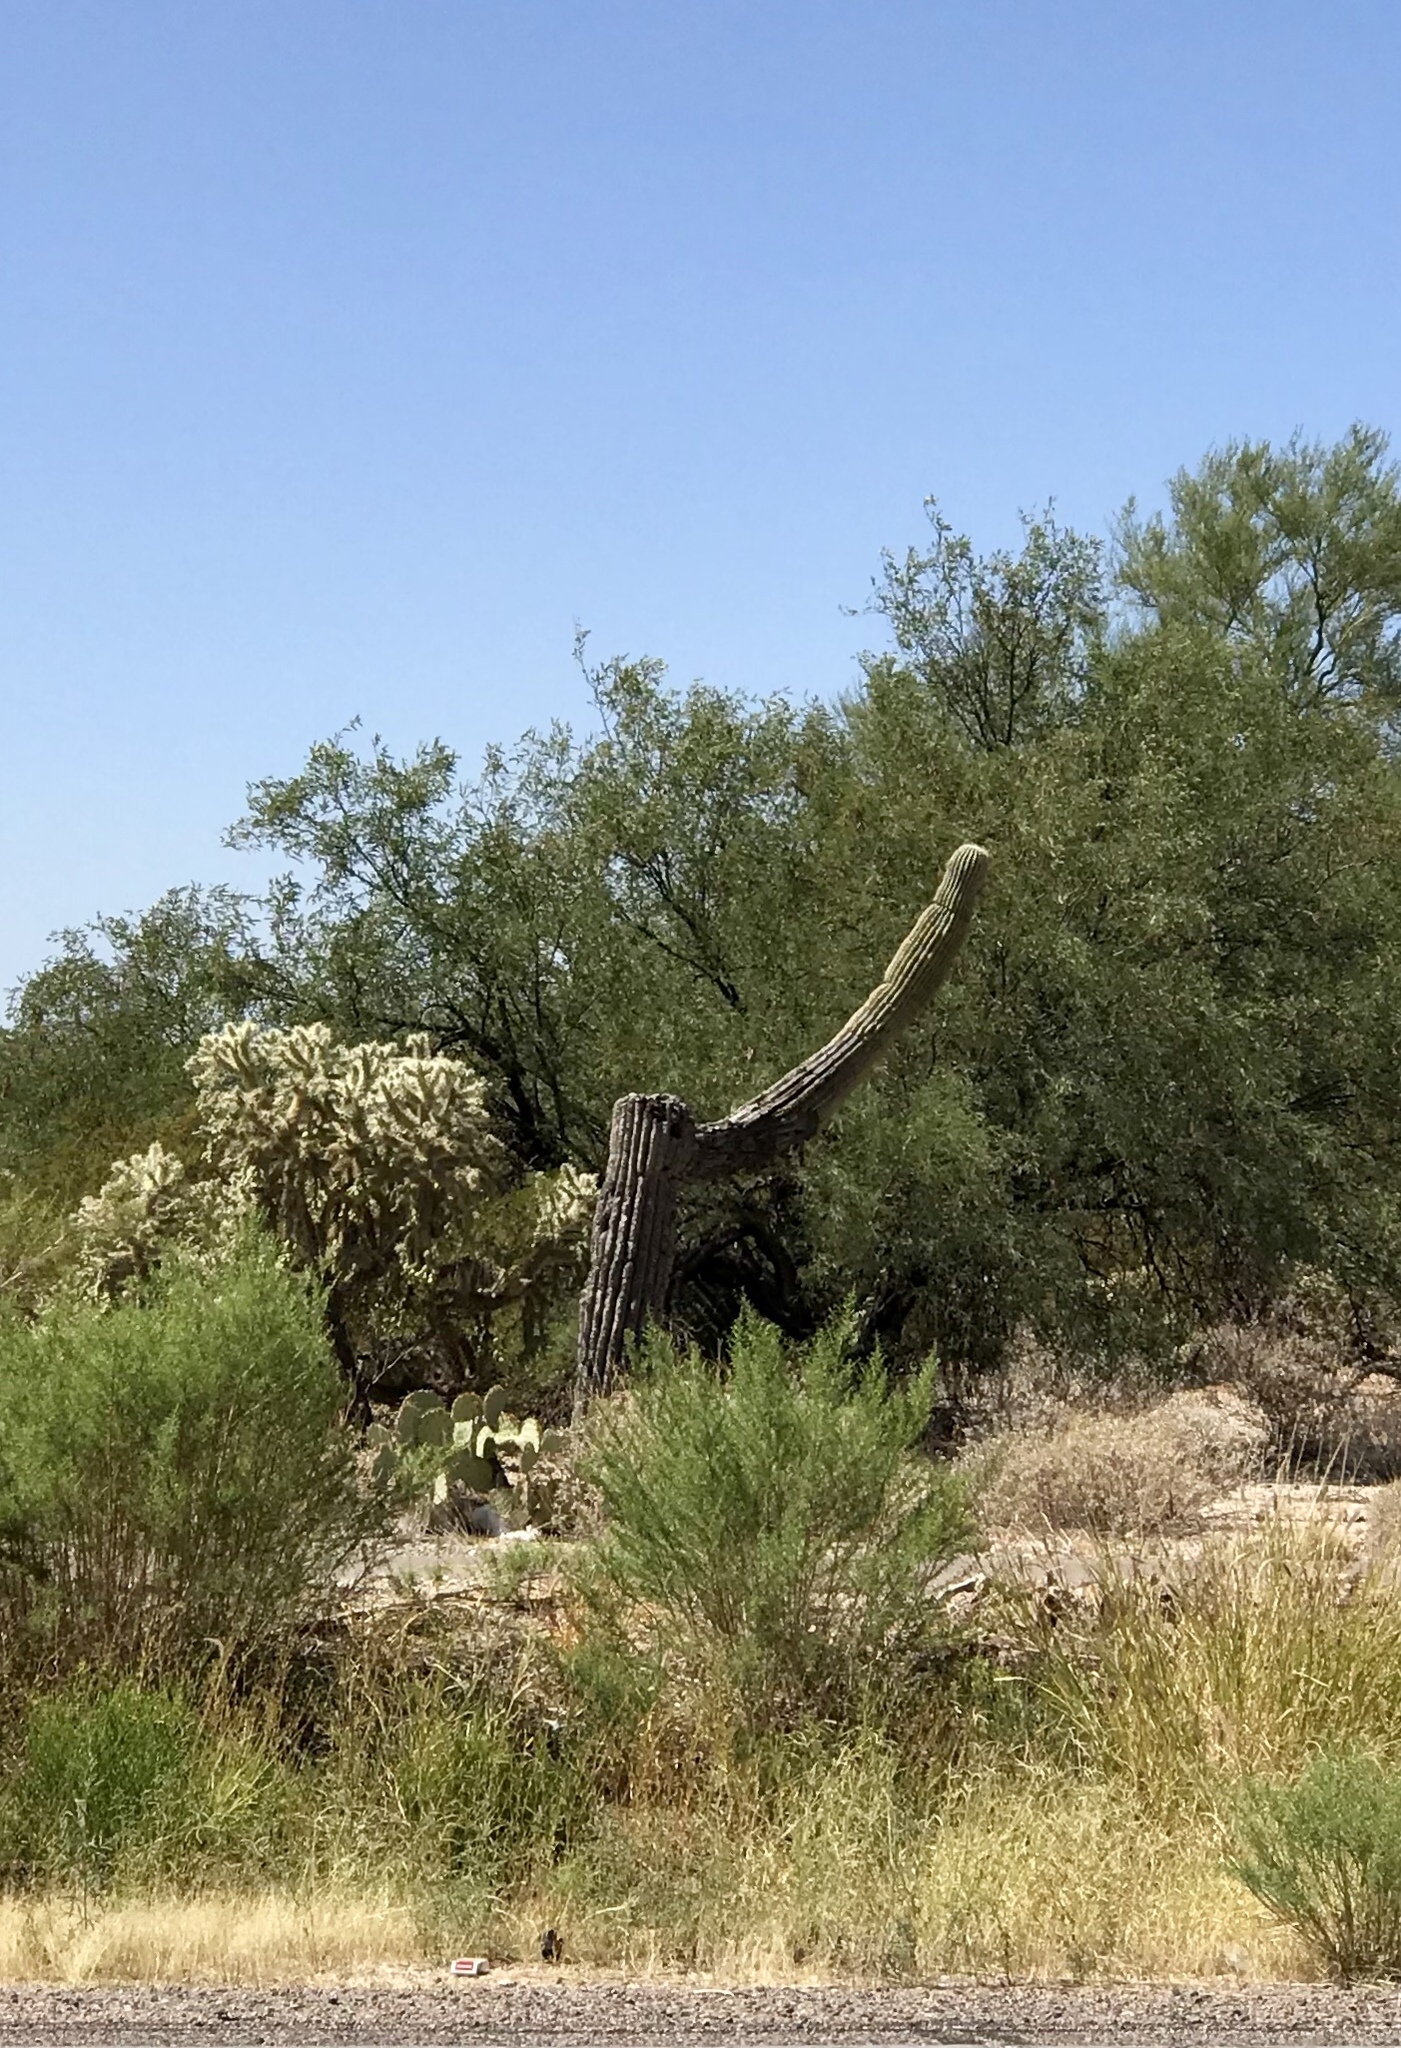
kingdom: Plantae
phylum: Tracheophyta
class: Magnoliopsida
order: Caryophyllales
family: Cactaceae
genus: Carnegiea
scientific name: Carnegiea gigantea
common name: Saguaro
